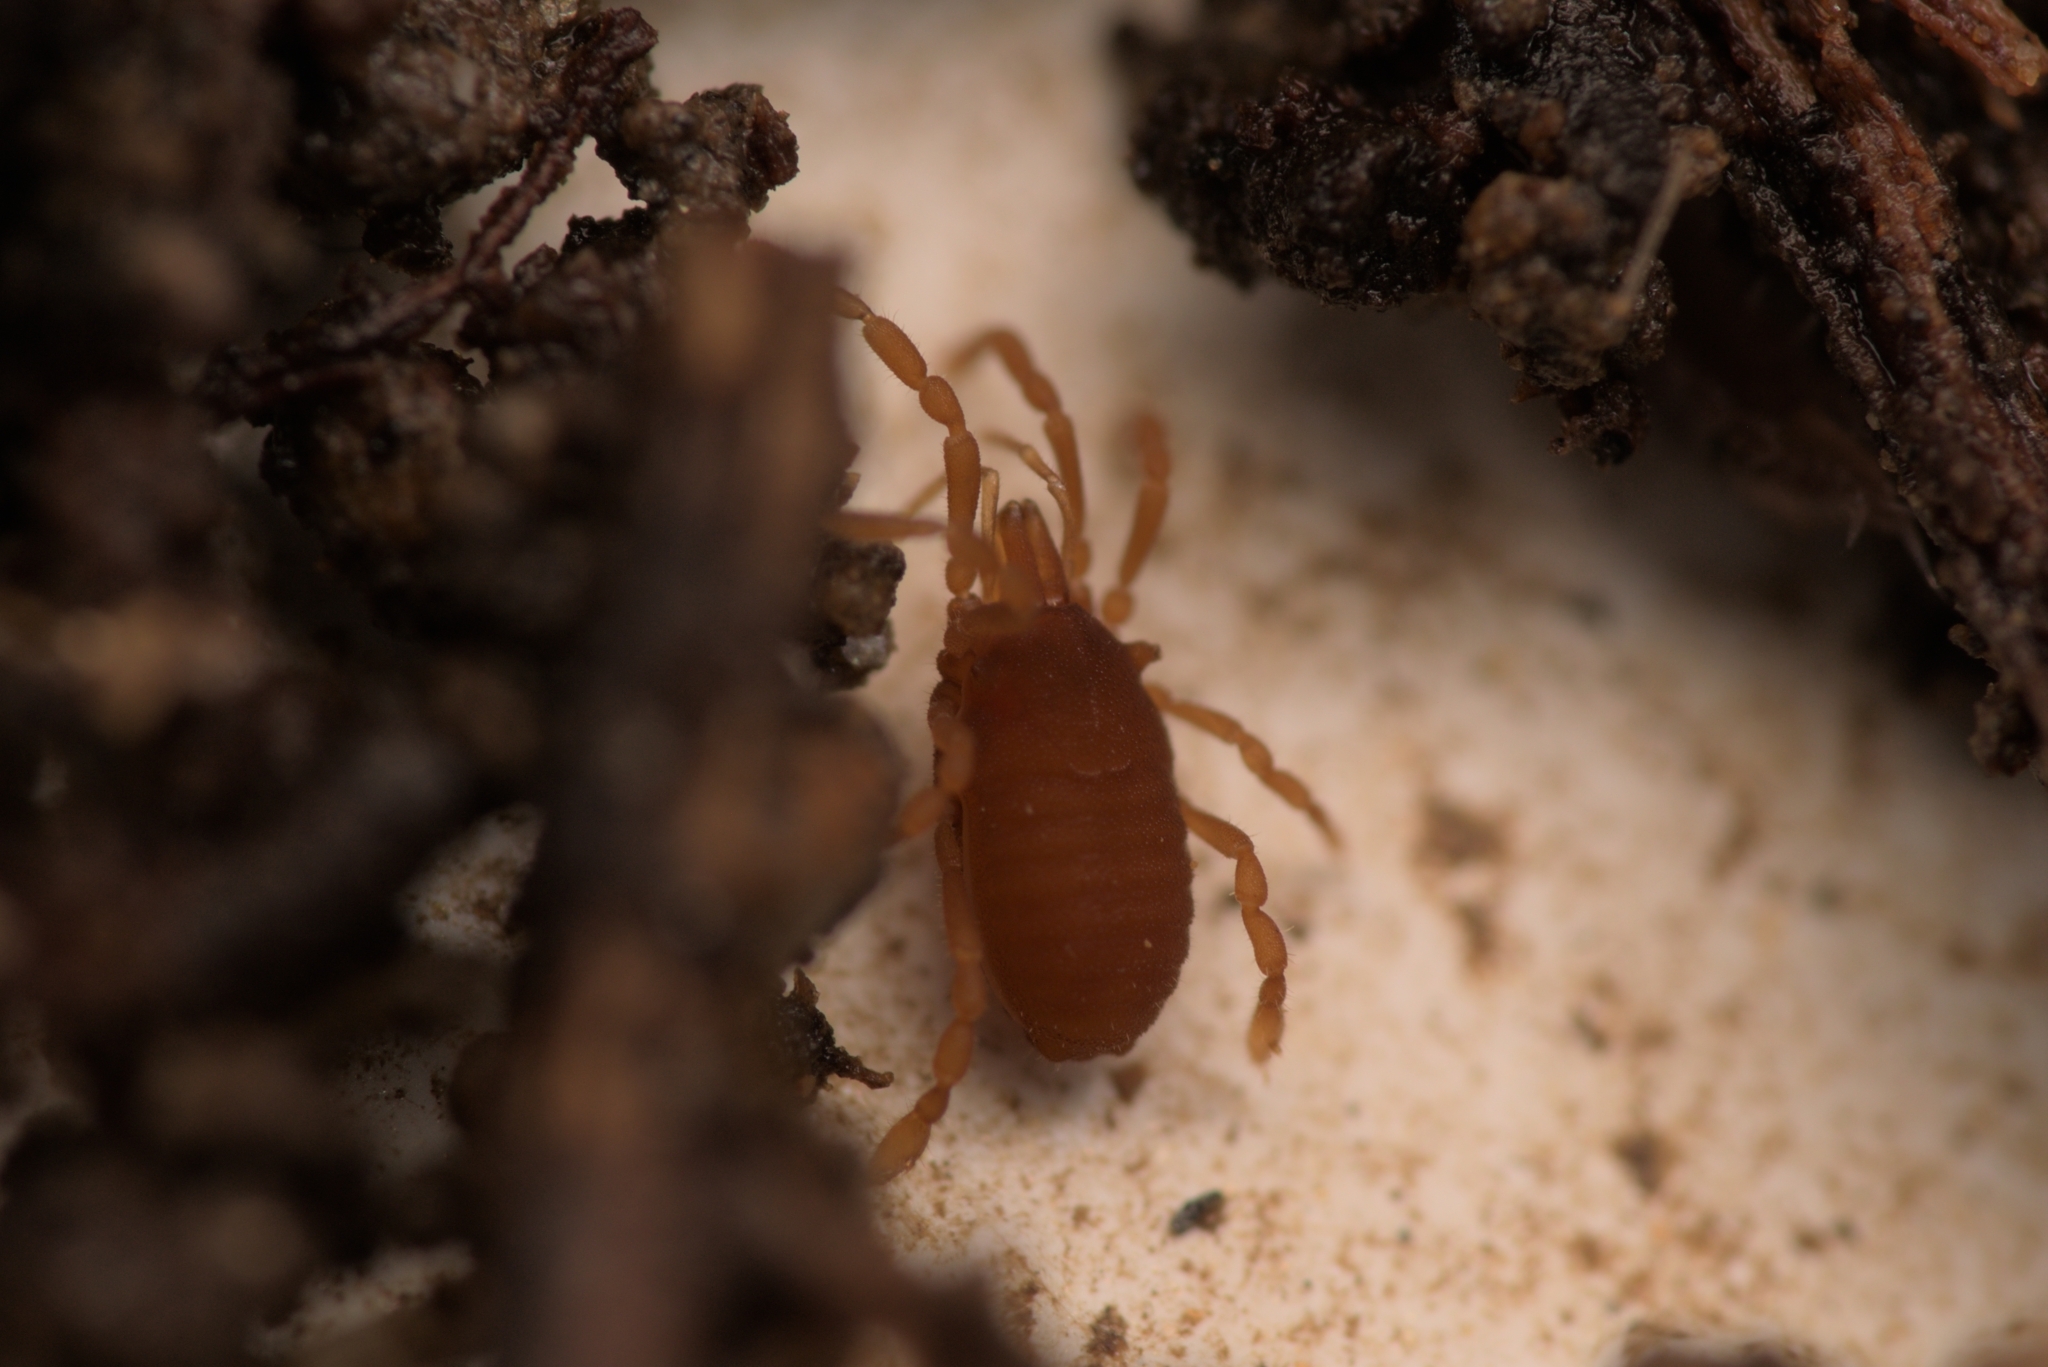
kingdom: Animalia
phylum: Arthropoda
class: Arachnida
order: Opiliones
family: Sironidae
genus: Siro
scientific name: Siro rubens
